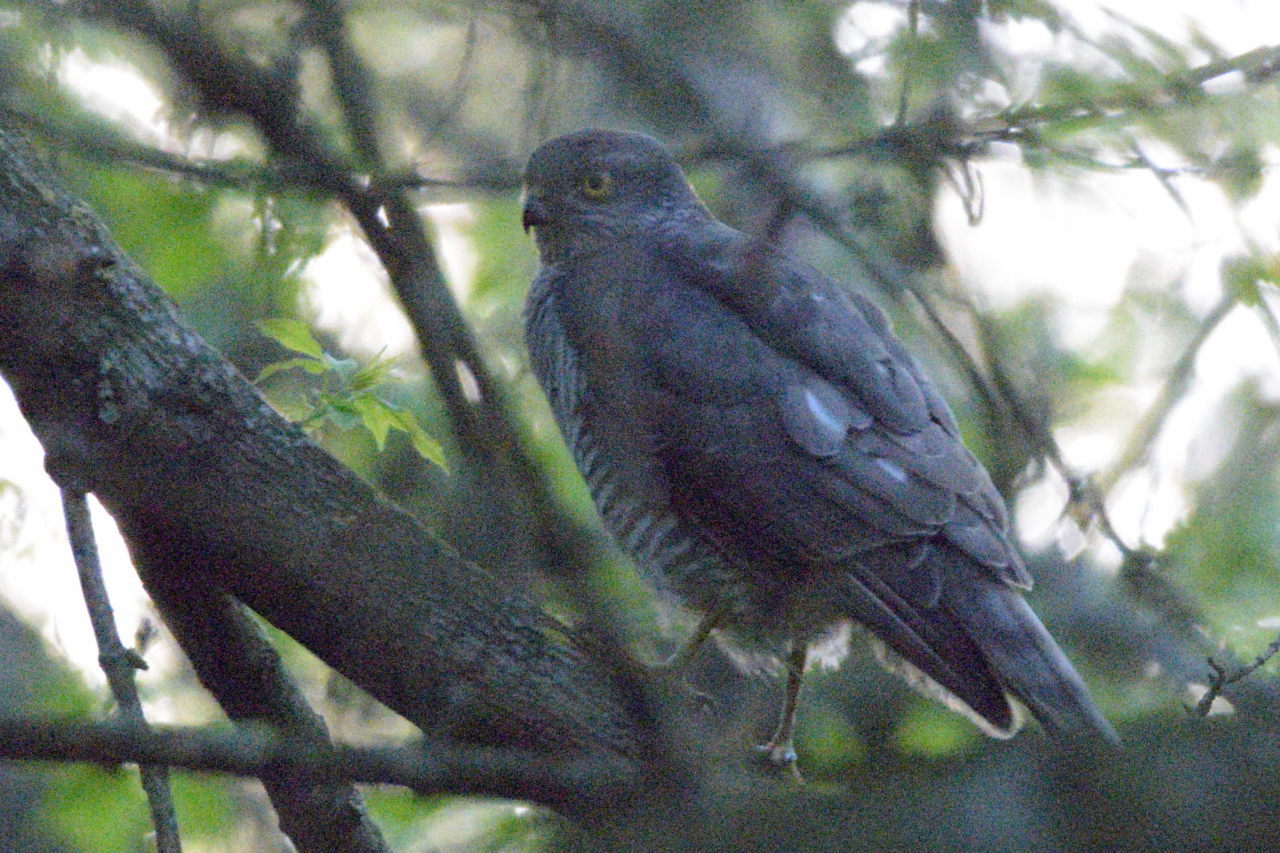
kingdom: Animalia
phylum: Chordata
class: Aves
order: Accipitriformes
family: Accipitridae
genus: Accipiter
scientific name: Accipiter nisus
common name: Eurasian sparrowhawk
